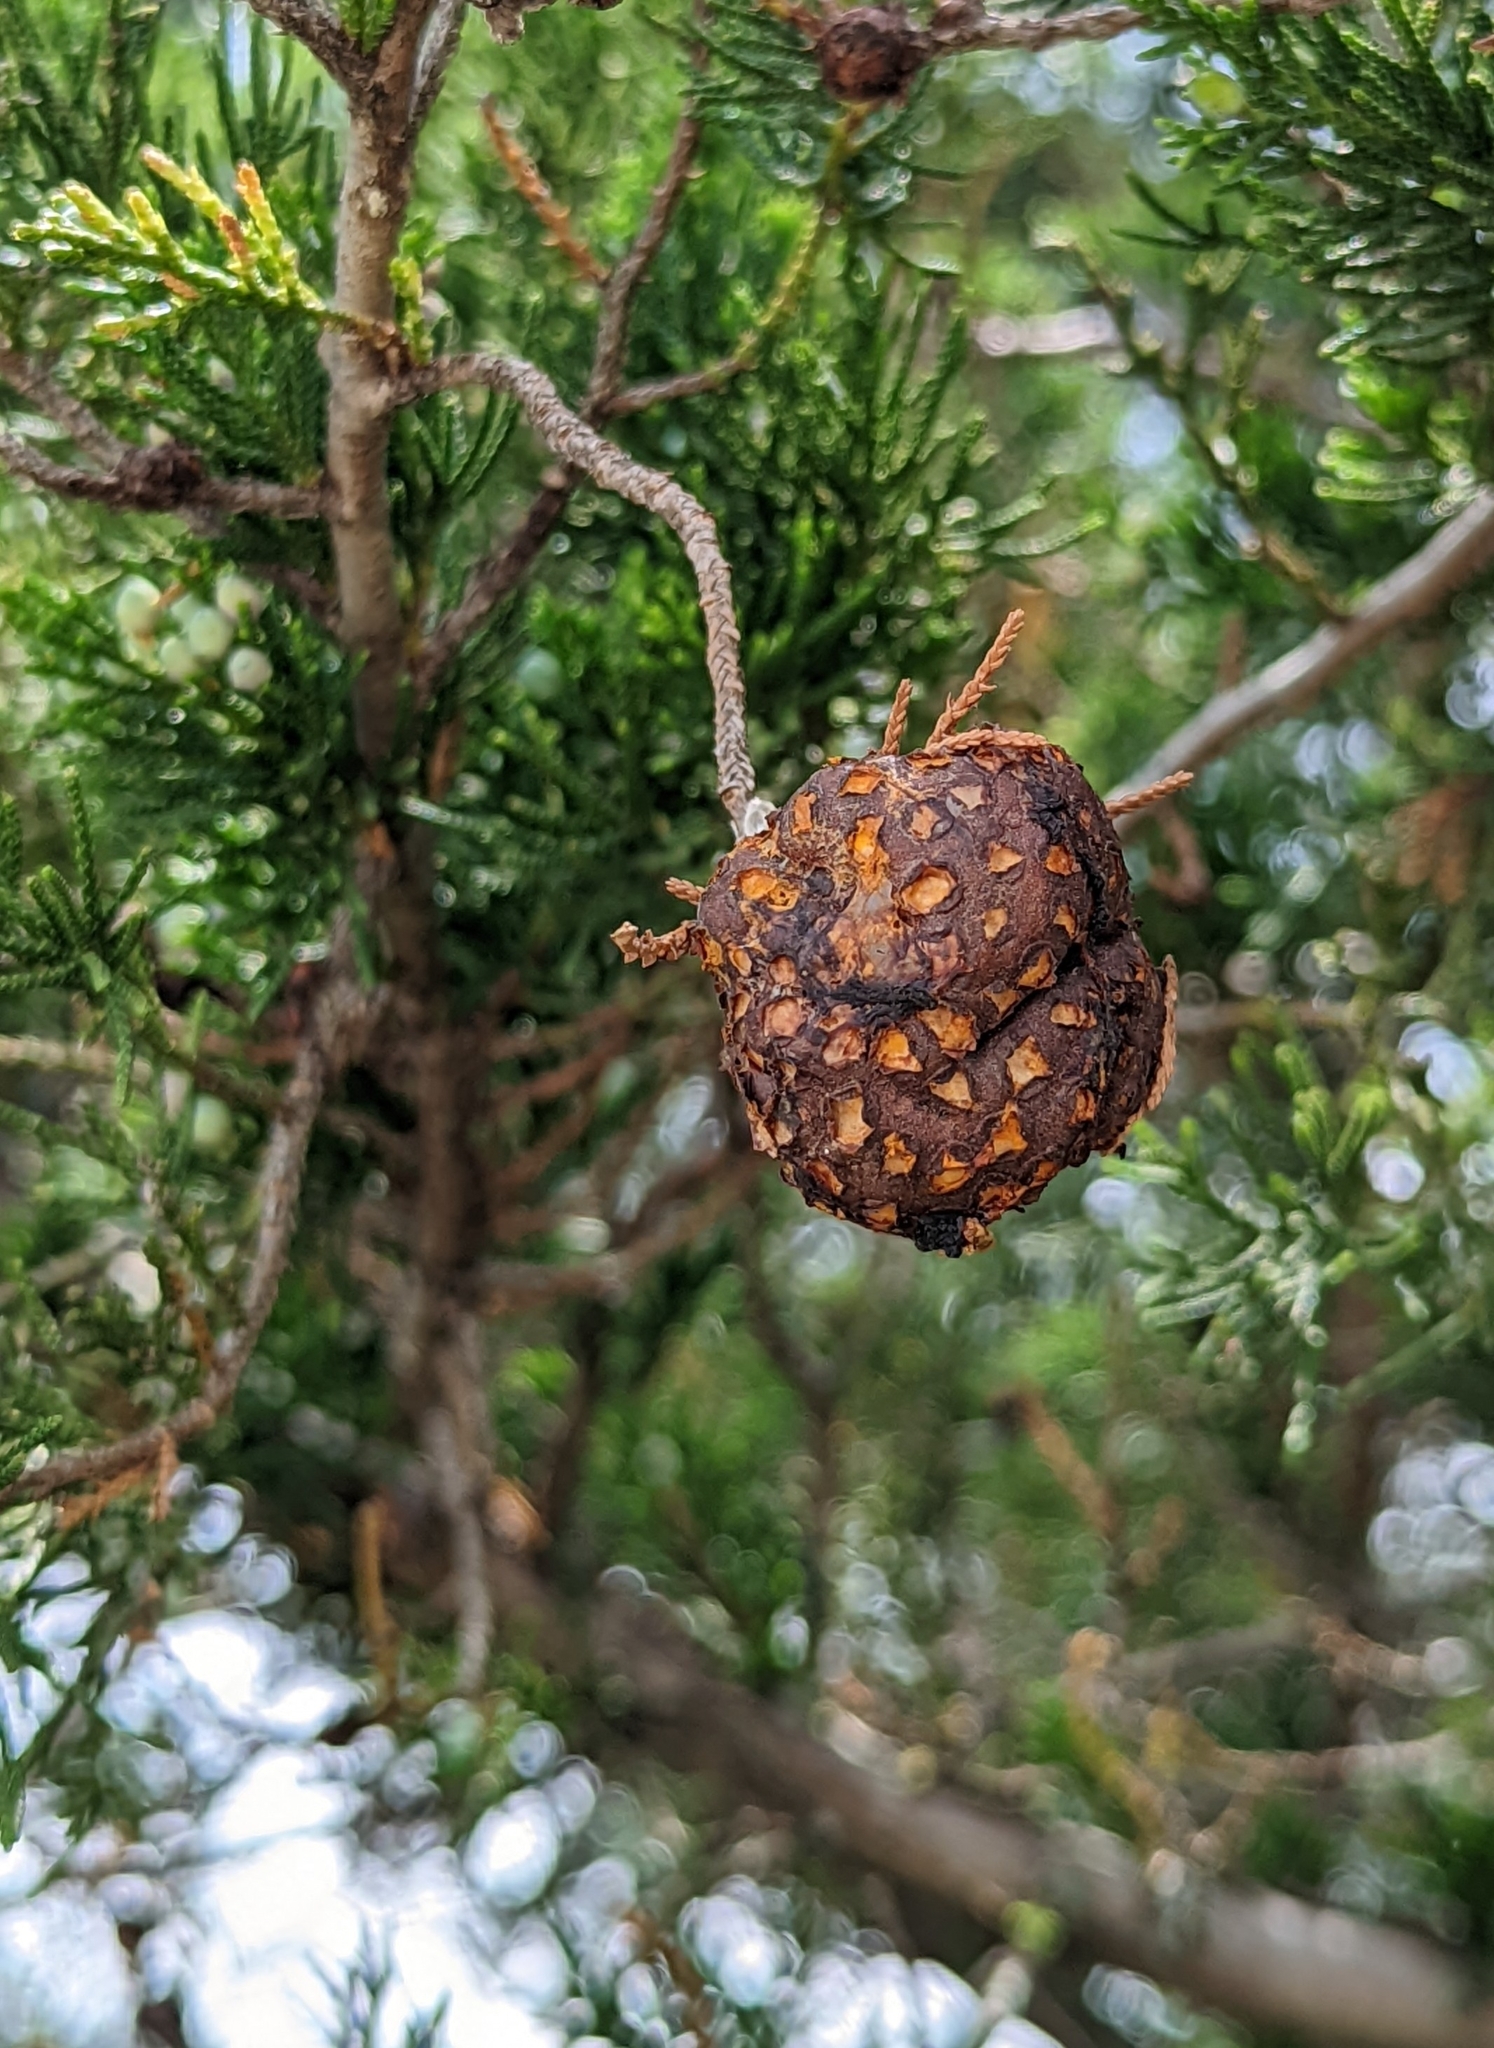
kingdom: Fungi
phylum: Basidiomycota
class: Pucciniomycetes
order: Pucciniales
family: Gymnosporangiaceae
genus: Gymnosporangium
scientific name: Gymnosporangium juniperi-virginianae
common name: Juniper-apple rust
